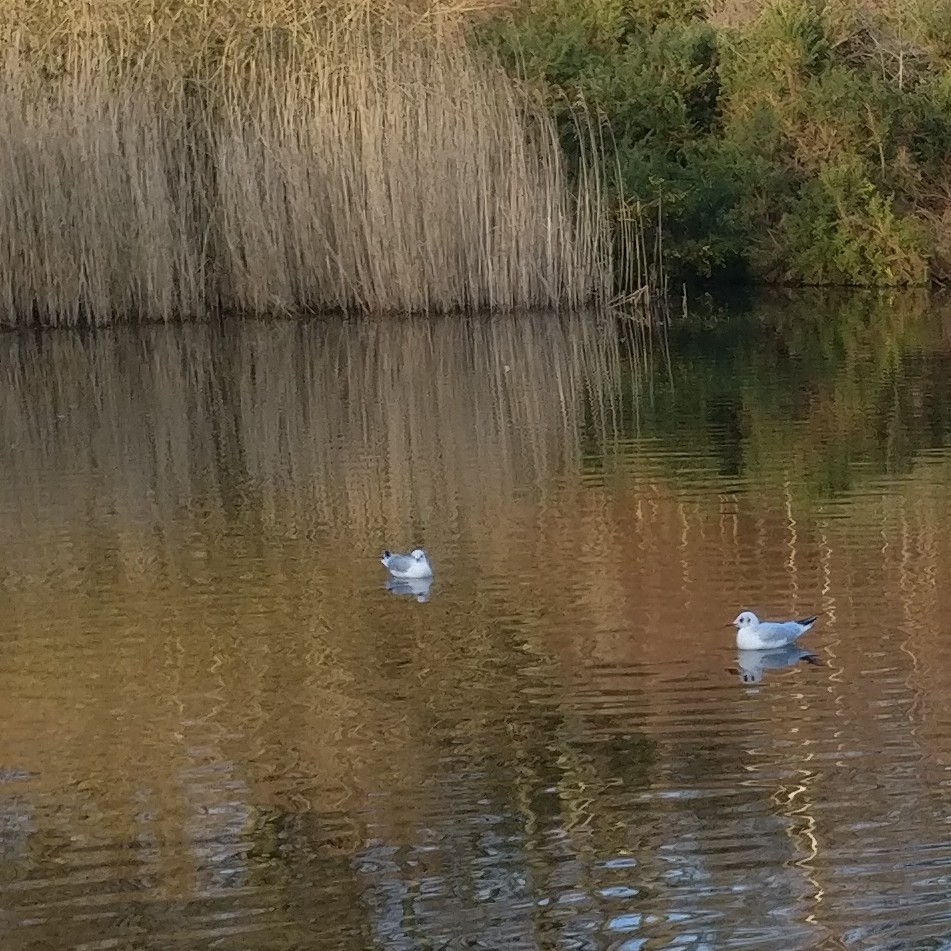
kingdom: Animalia
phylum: Chordata
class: Aves
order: Charadriiformes
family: Laridae
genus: Chroicocephalus
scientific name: Chroicocephalus ridibundus
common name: Black-headed gull
